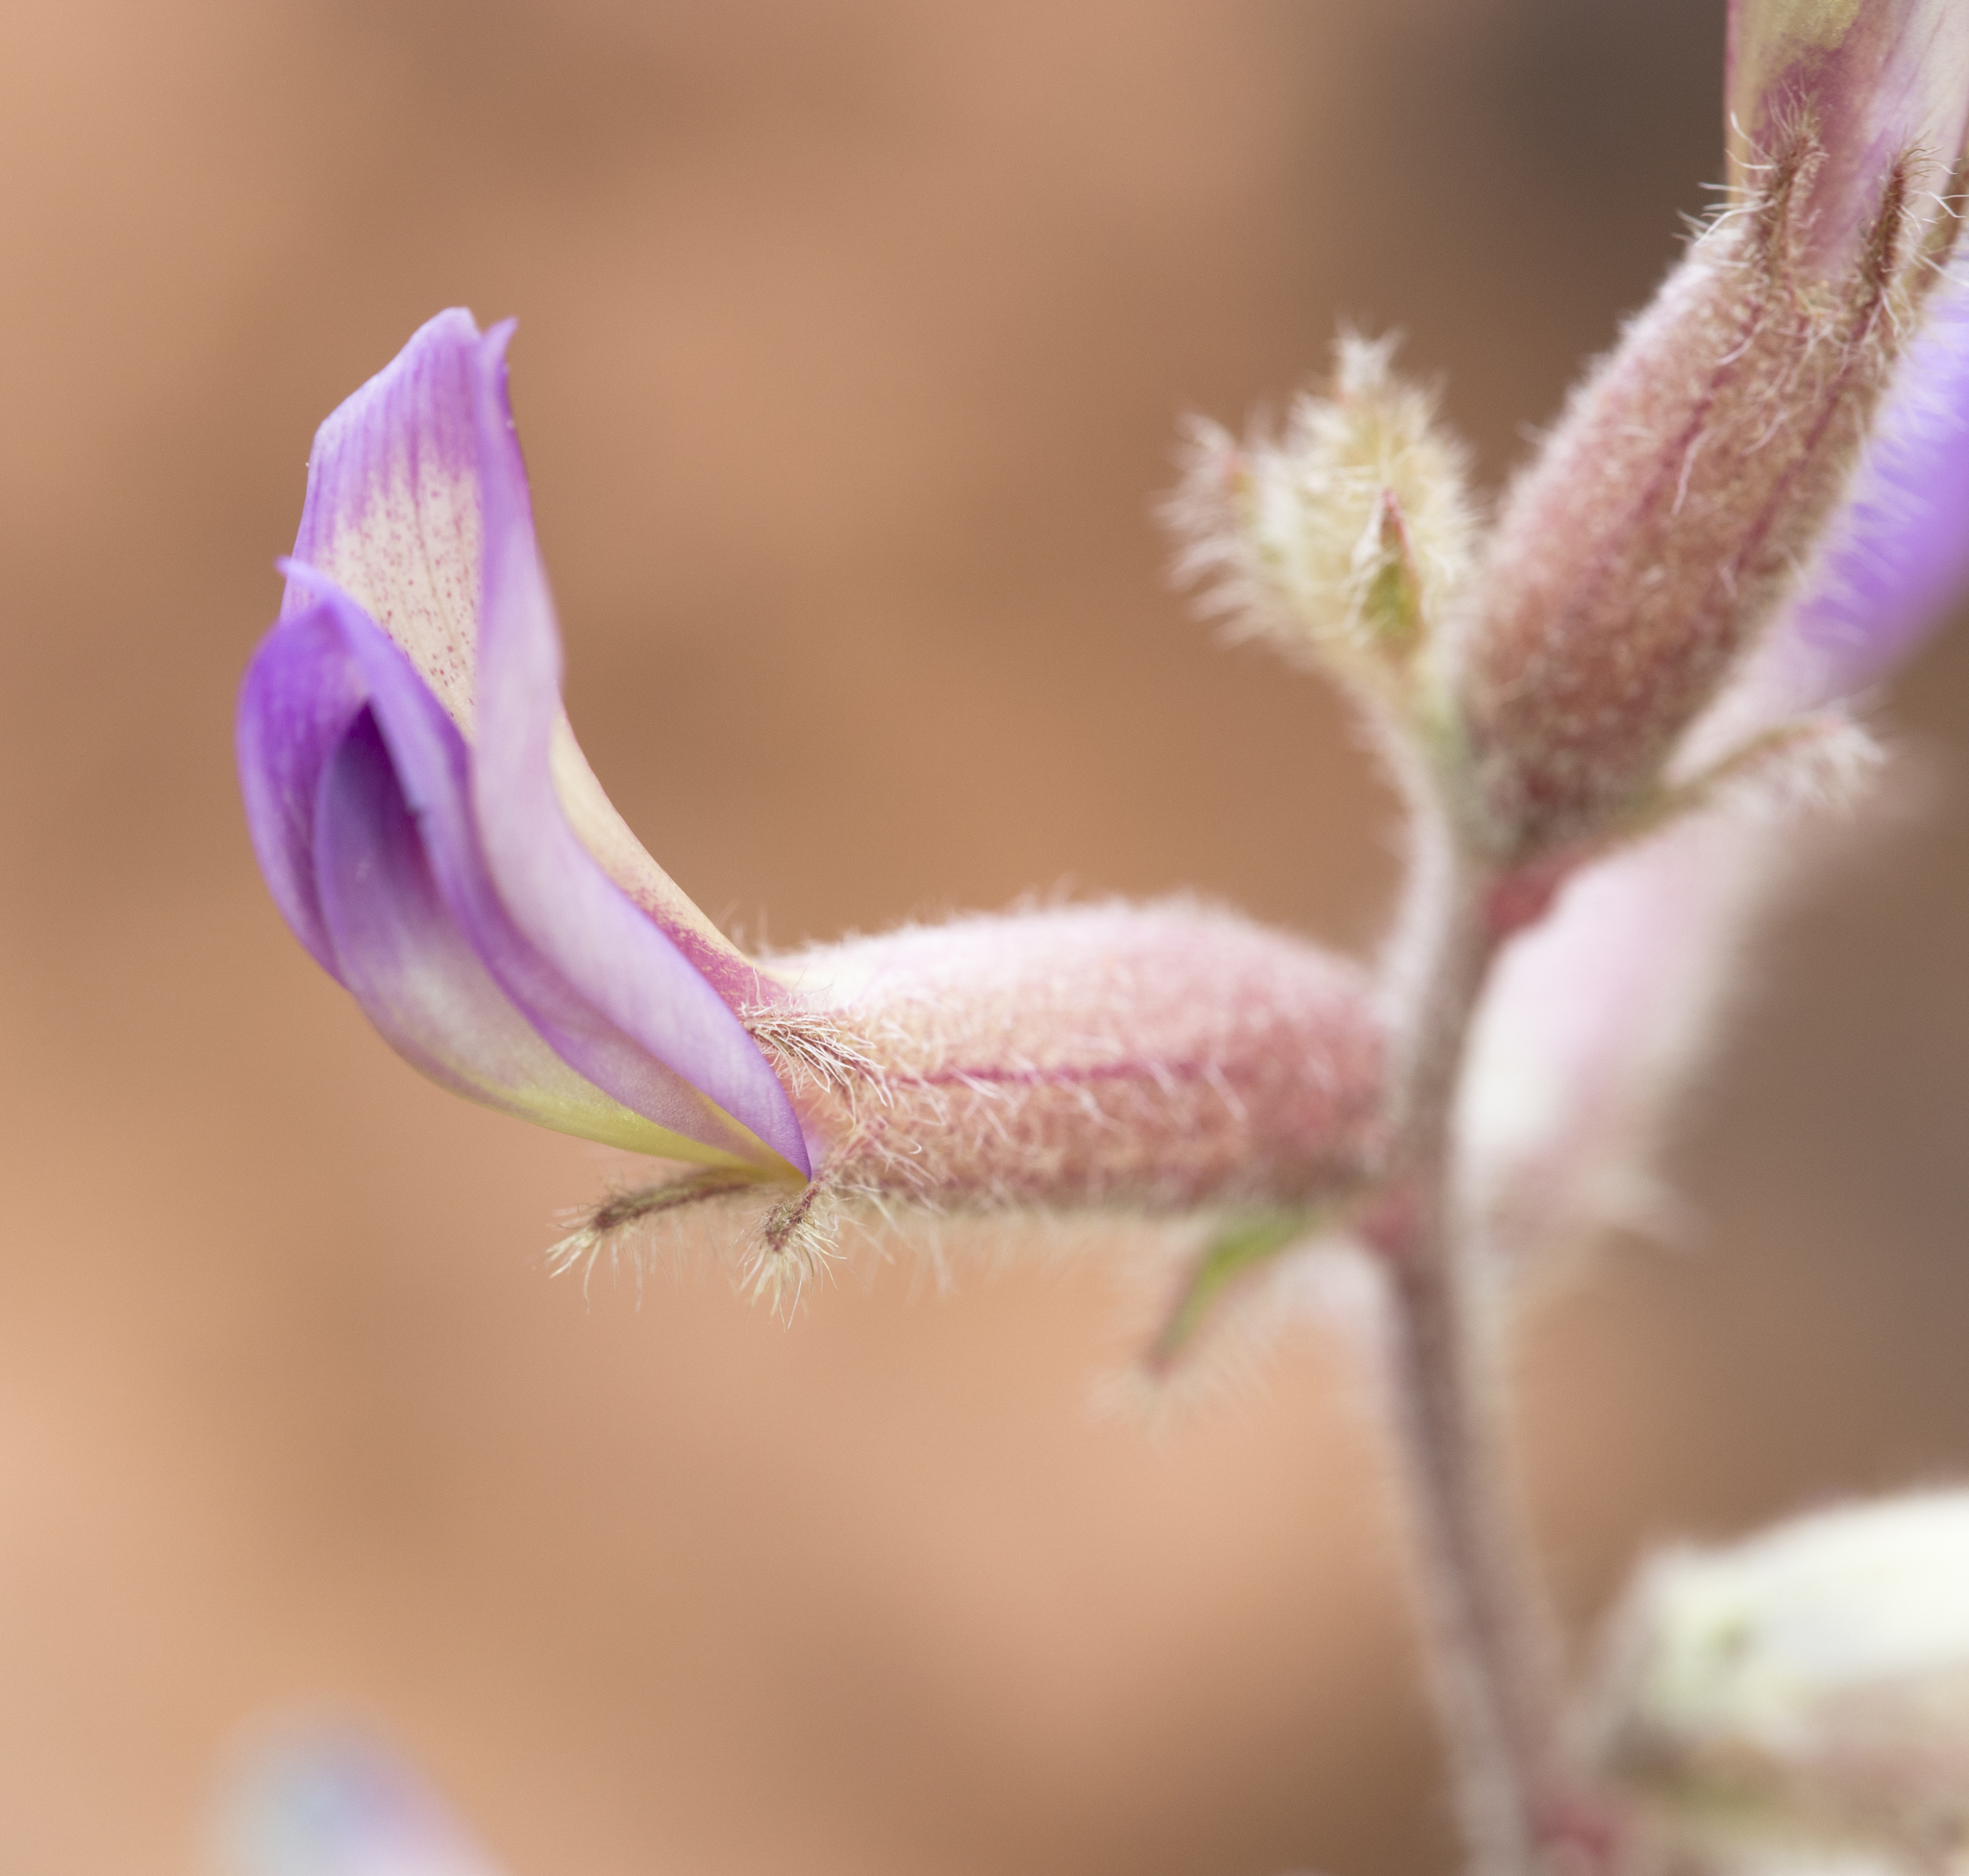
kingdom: Plantae
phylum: Tracheophyta
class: Magnoliopsida
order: Fabales
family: Fabaceae
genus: Astragalus
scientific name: Astragalus mollissimus
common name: Woolly locoweed
